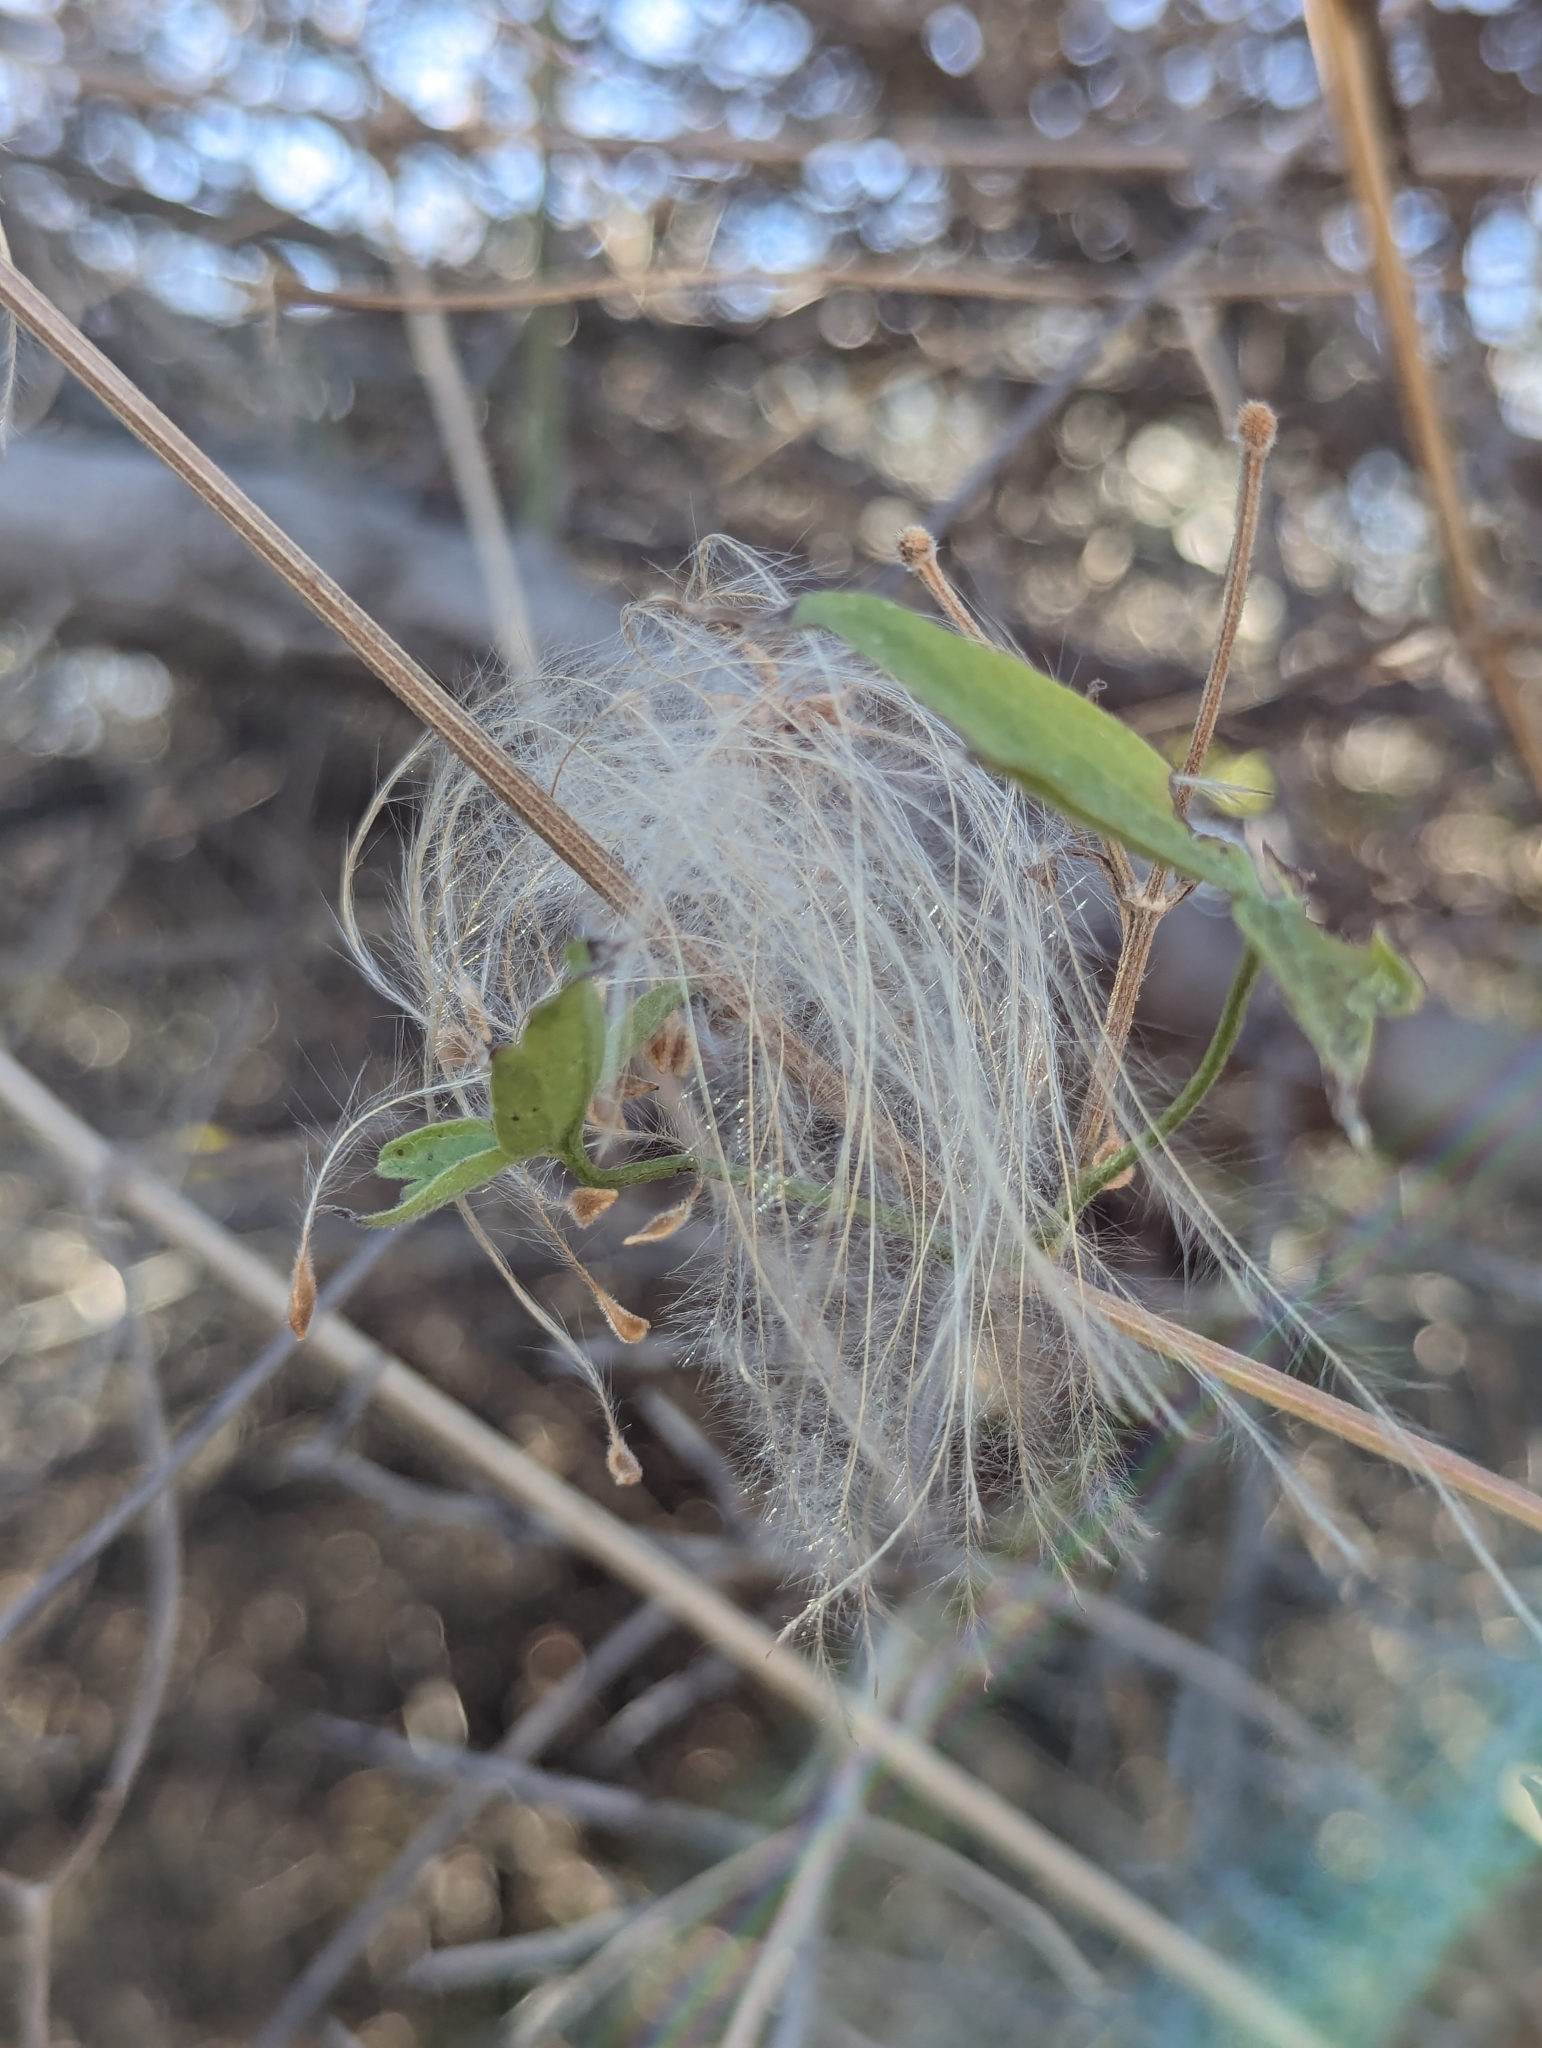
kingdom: Plantae
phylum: Tracheophyta
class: Magnoliopsida
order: Ranunculales
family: Ranunculaceae
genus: Clematis
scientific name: Clematis drummondii
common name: Texas virgin's bower
